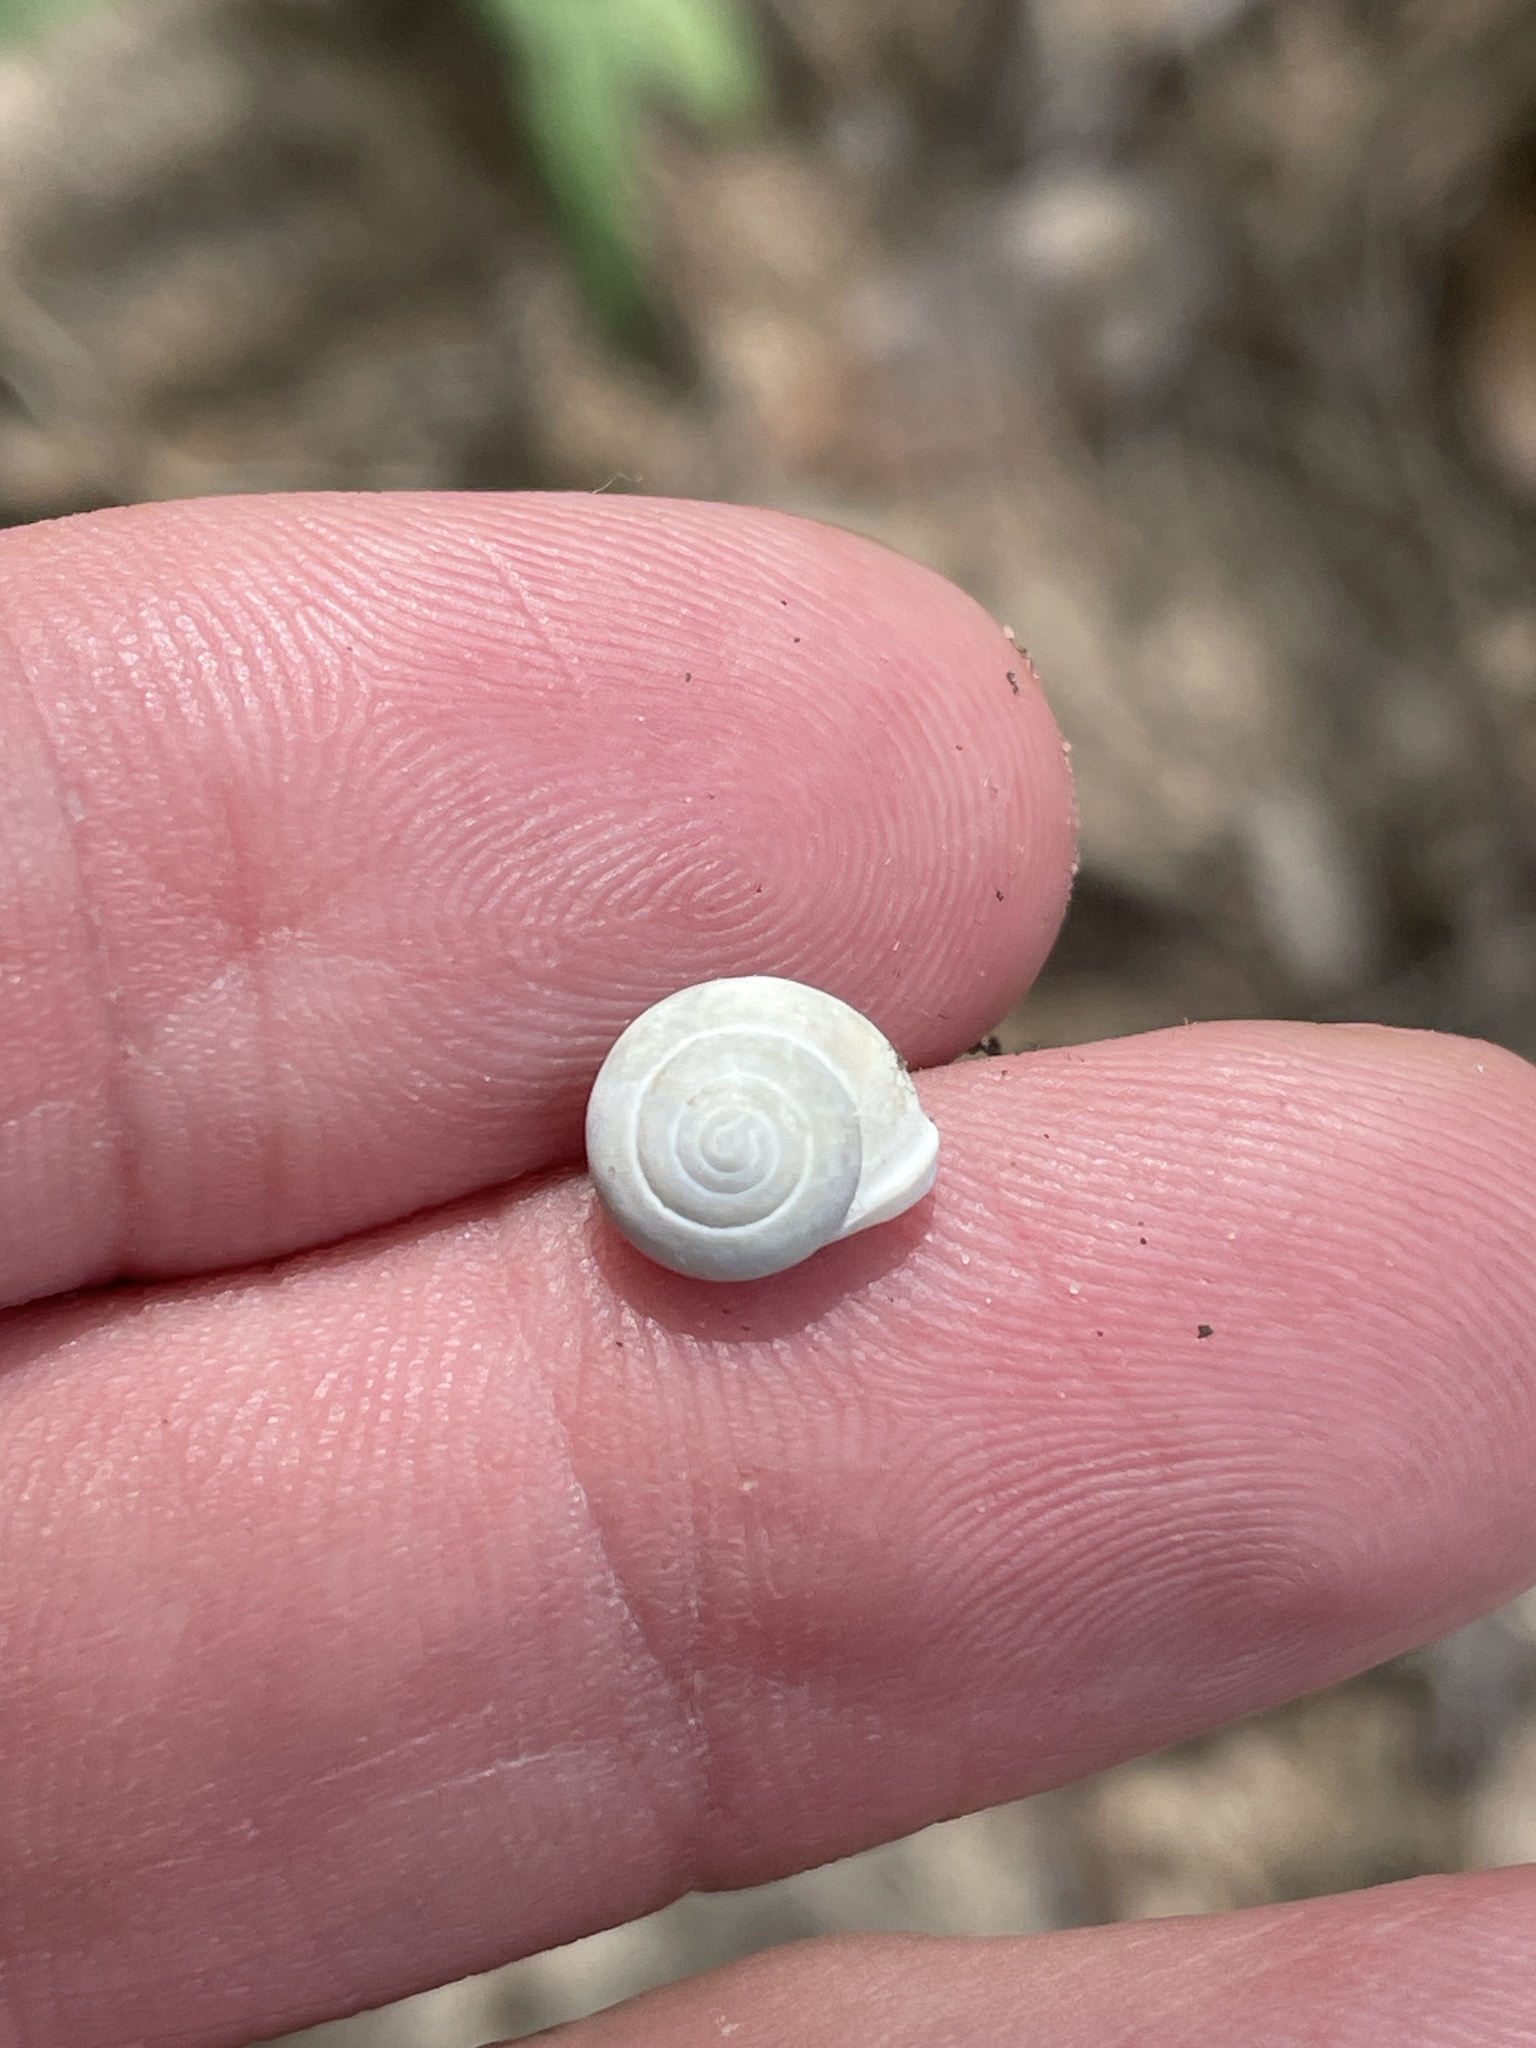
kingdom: Animalia
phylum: Mollusca
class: Gastropoda
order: Cycloneritida
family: Helicinidae
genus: Helicina
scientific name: Helicina orbiculata
